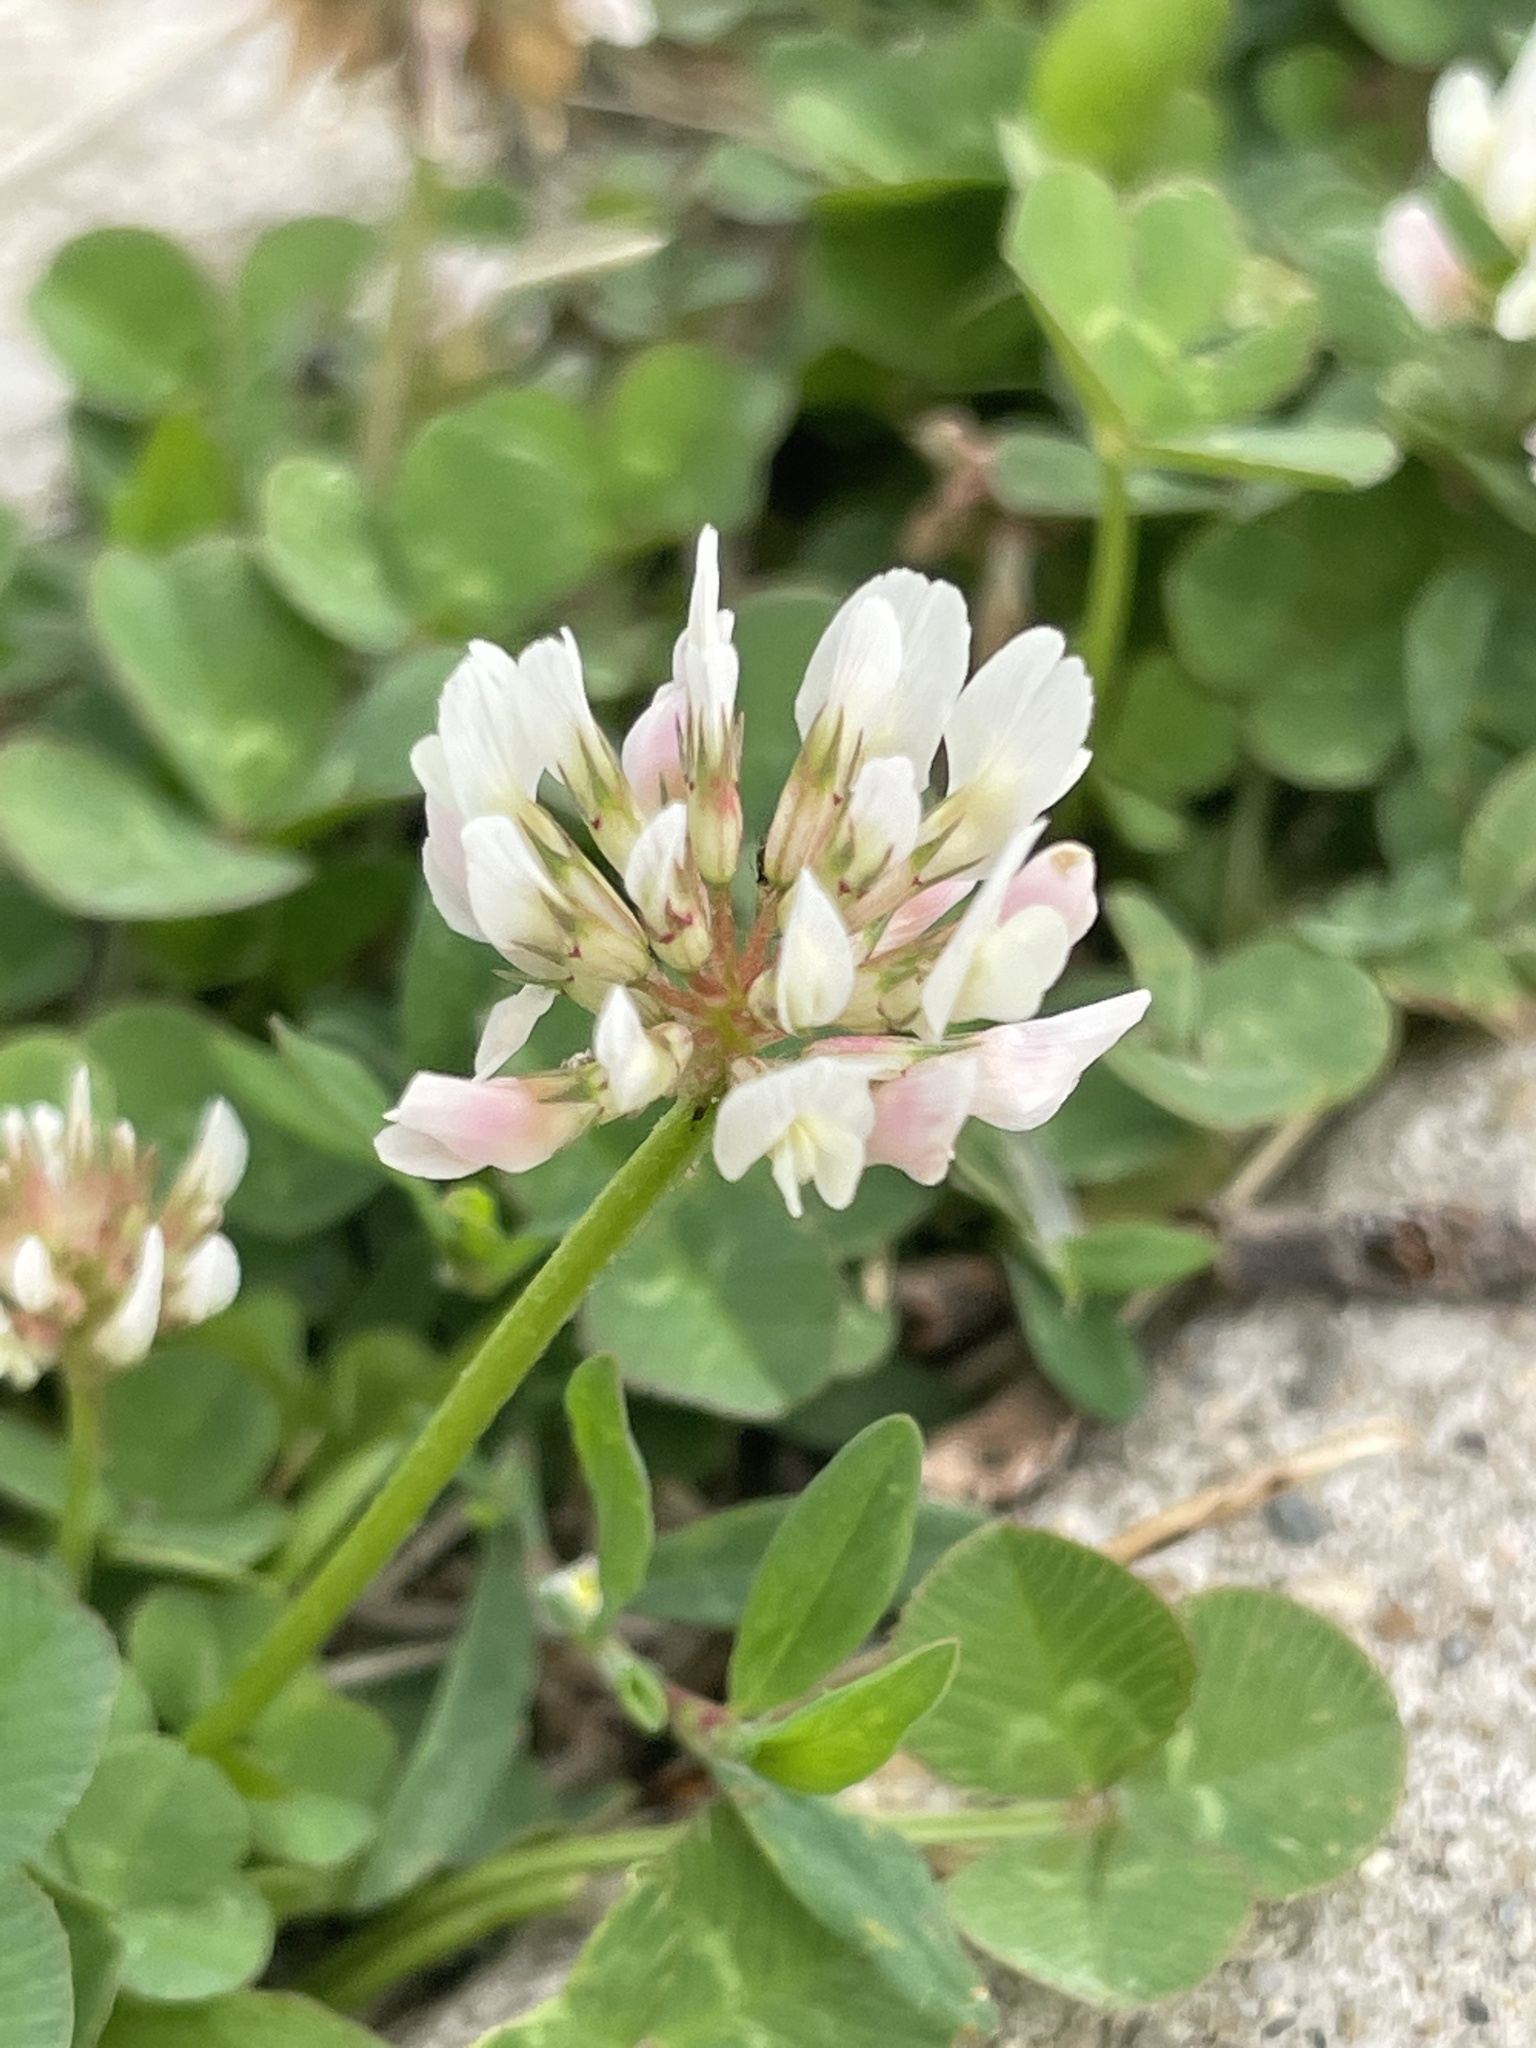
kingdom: Plantae
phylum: Tracheophyta
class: Magnoliopsida
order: Fabales
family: Fabaceae
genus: Trifolium
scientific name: Trifolium repens
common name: White clover
